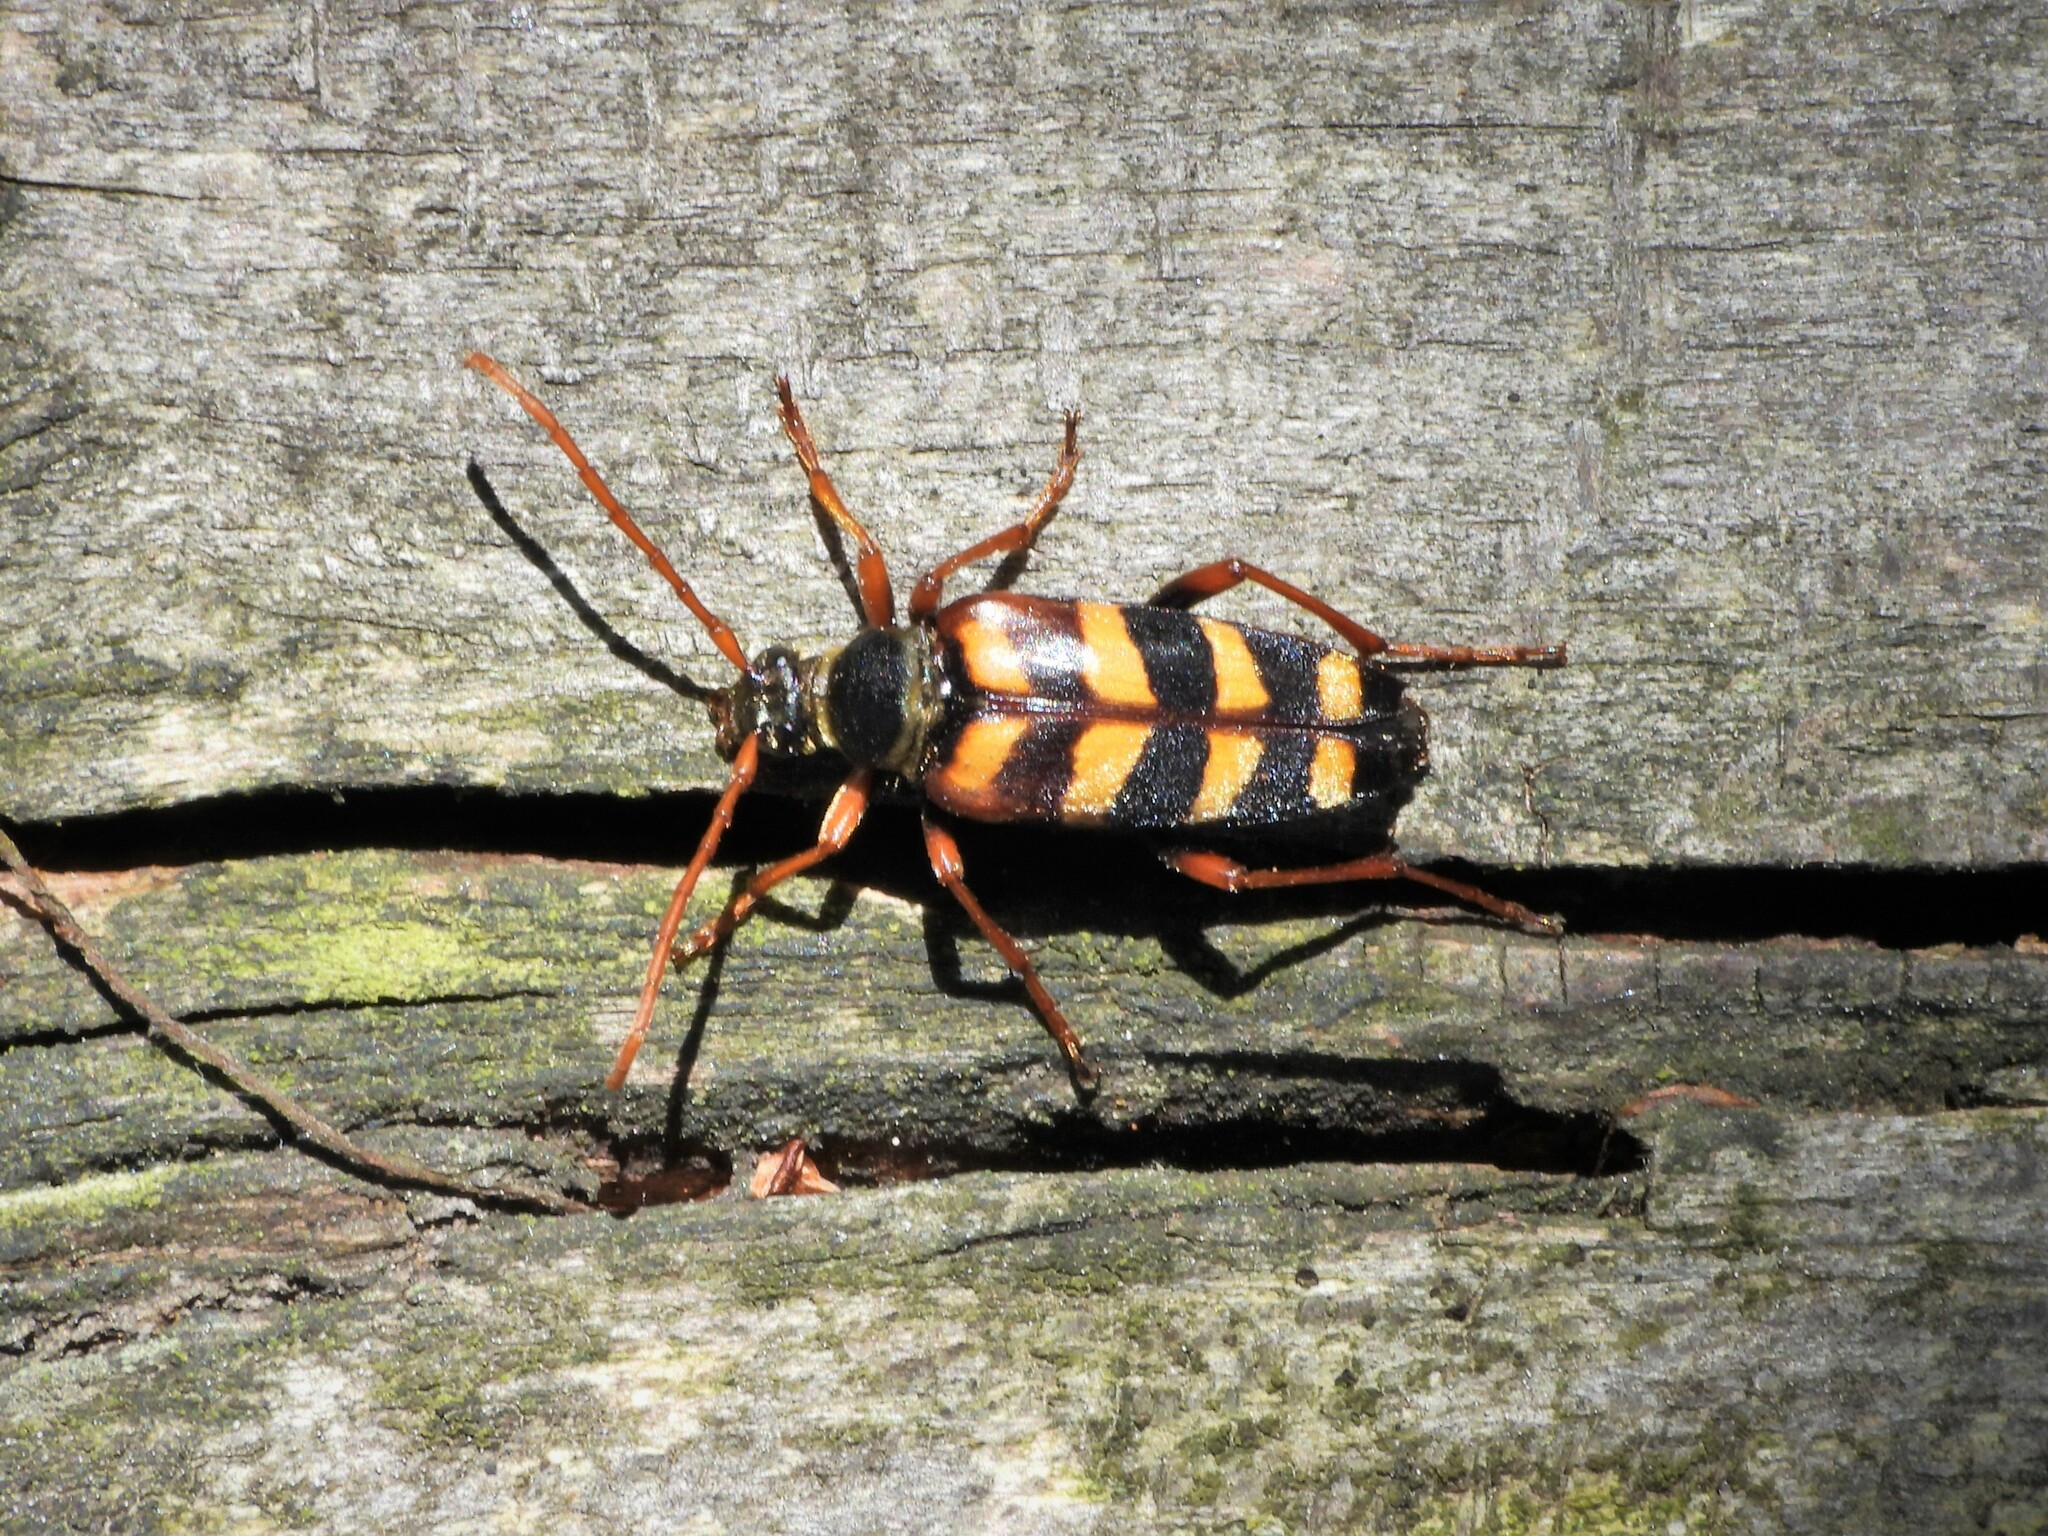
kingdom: Animalia
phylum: Arthropoda
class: Insecta
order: Coleoptera
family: Cerambycidae
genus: Leptura
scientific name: Leptura aurulenta
